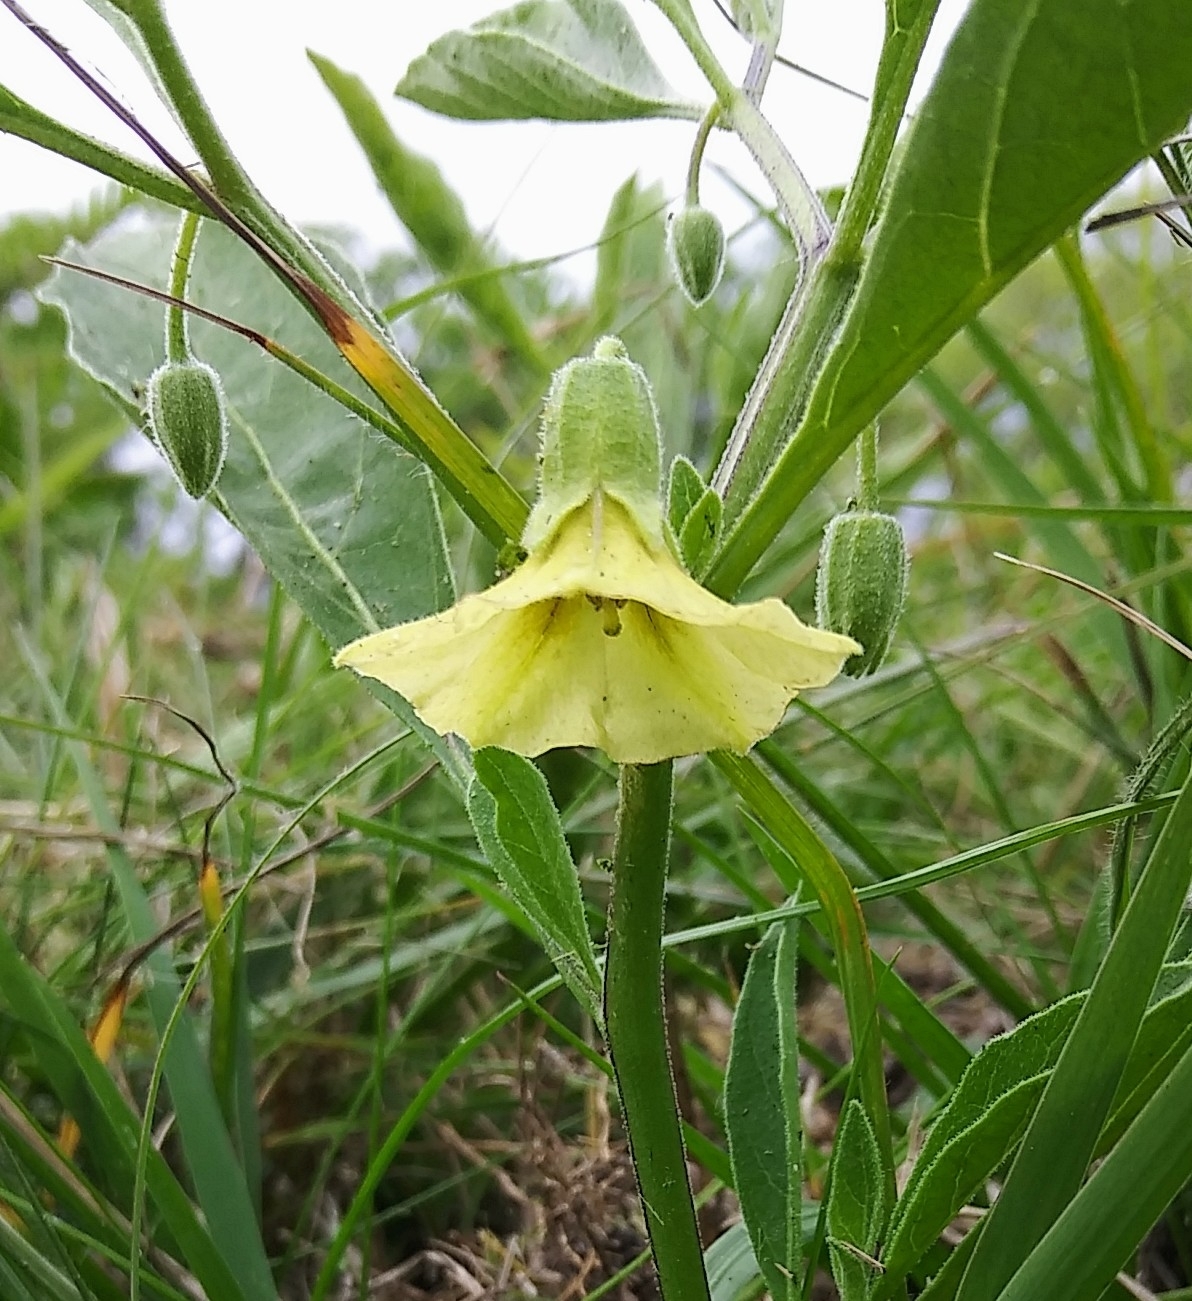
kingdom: Plantae
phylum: Tracheophyta
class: Magnoliopsida
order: Solanales
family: Solanaceae
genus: Physalis
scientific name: Physalis walteri
